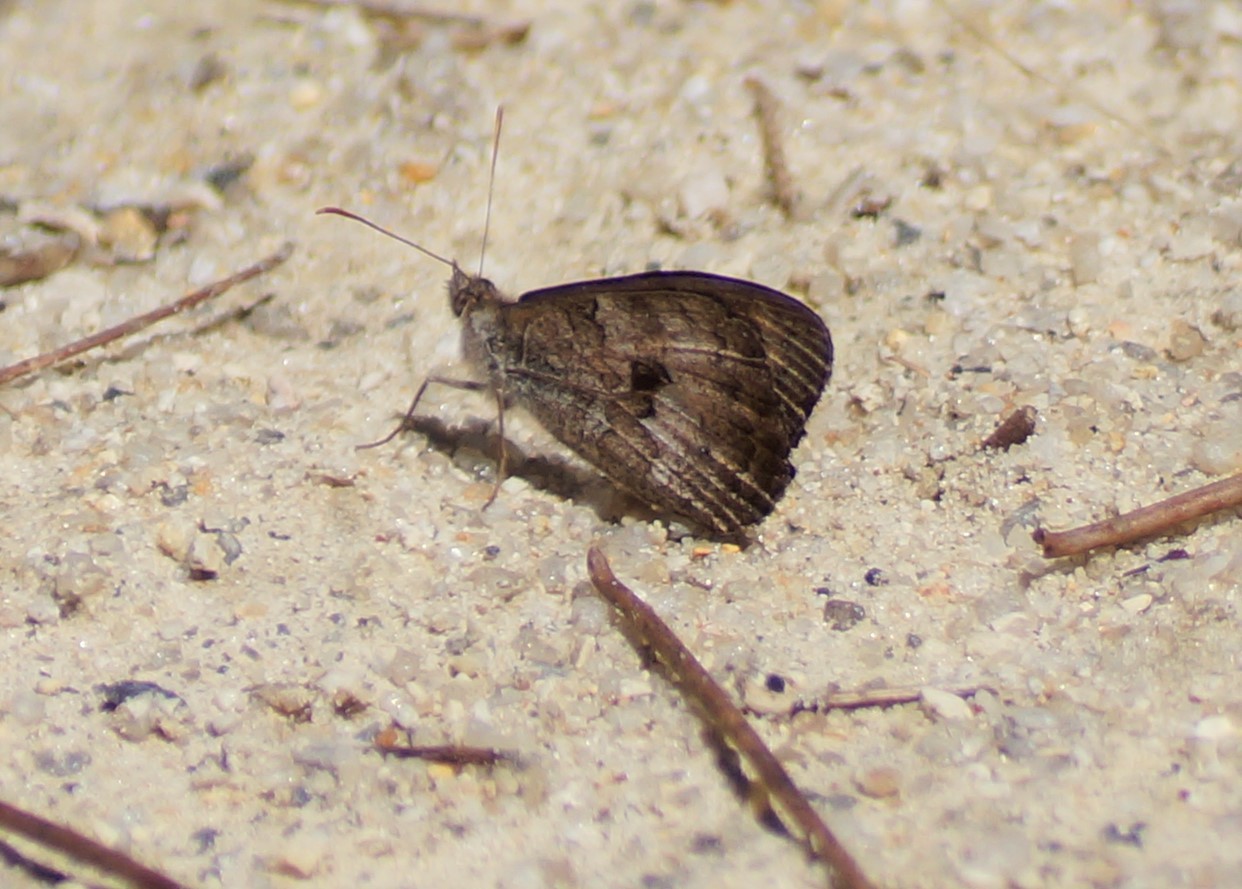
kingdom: Animalia
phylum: Arthropoda
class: Insecta
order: Lepidoptera
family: Nymphalidae
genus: Geitoneura
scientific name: Geitoneura klugii
